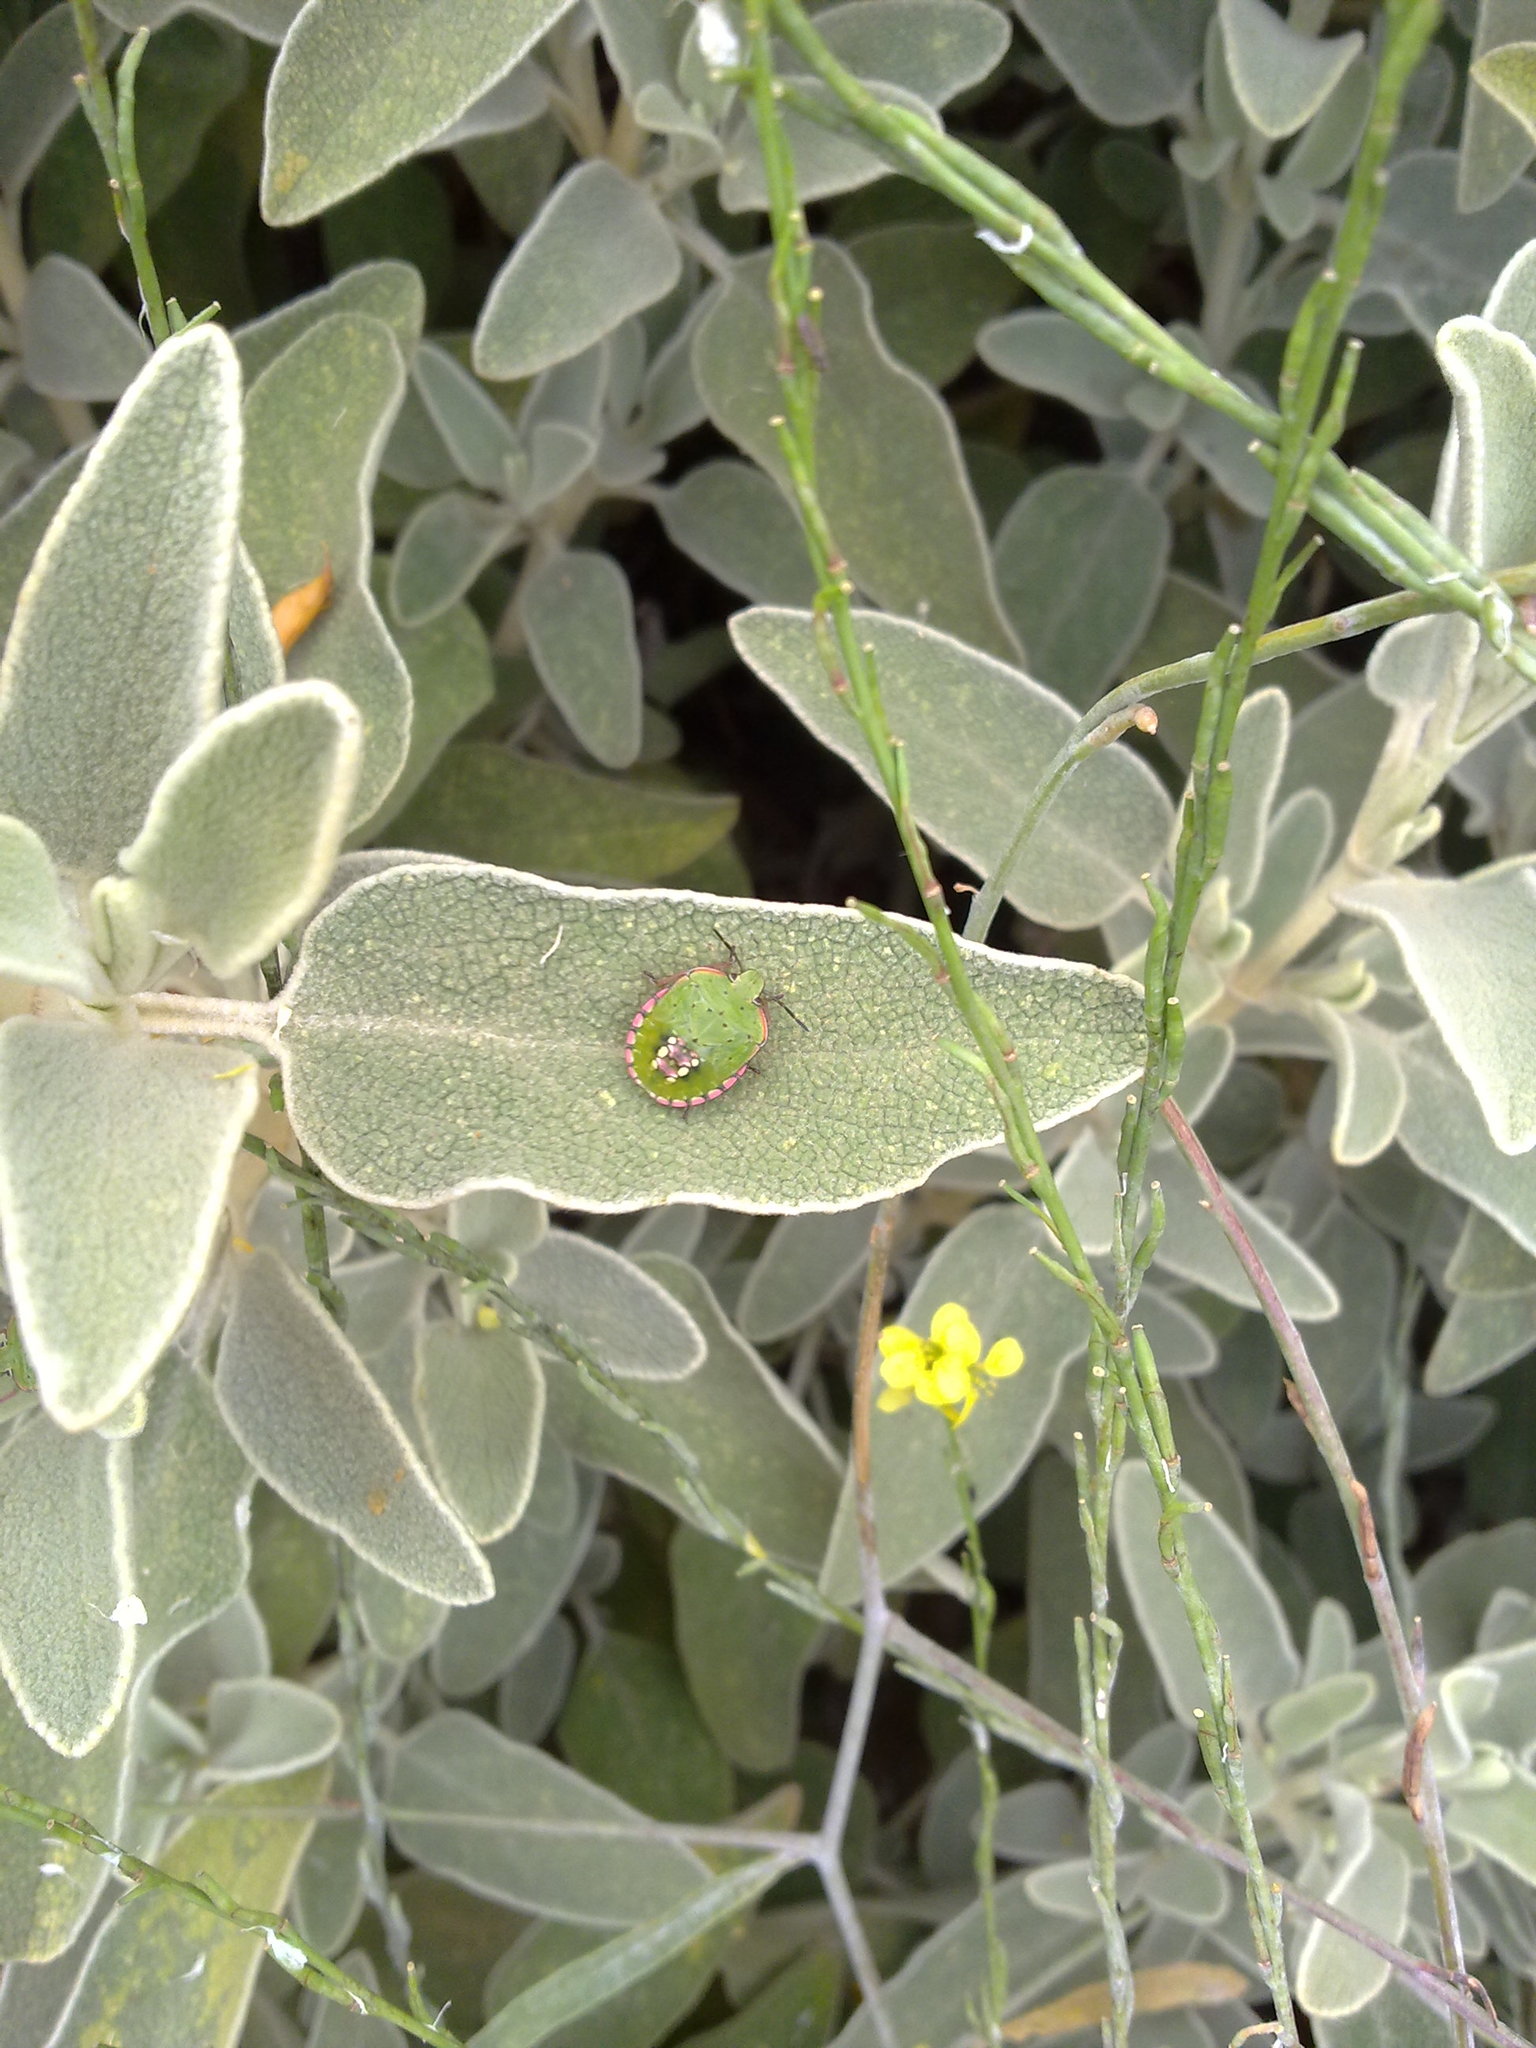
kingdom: Animalia
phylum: Arthropoda
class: Insecta
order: Hemiptera
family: Pentatomidae
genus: Nezara
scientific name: Nezara viridula
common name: Southern green stink bug
